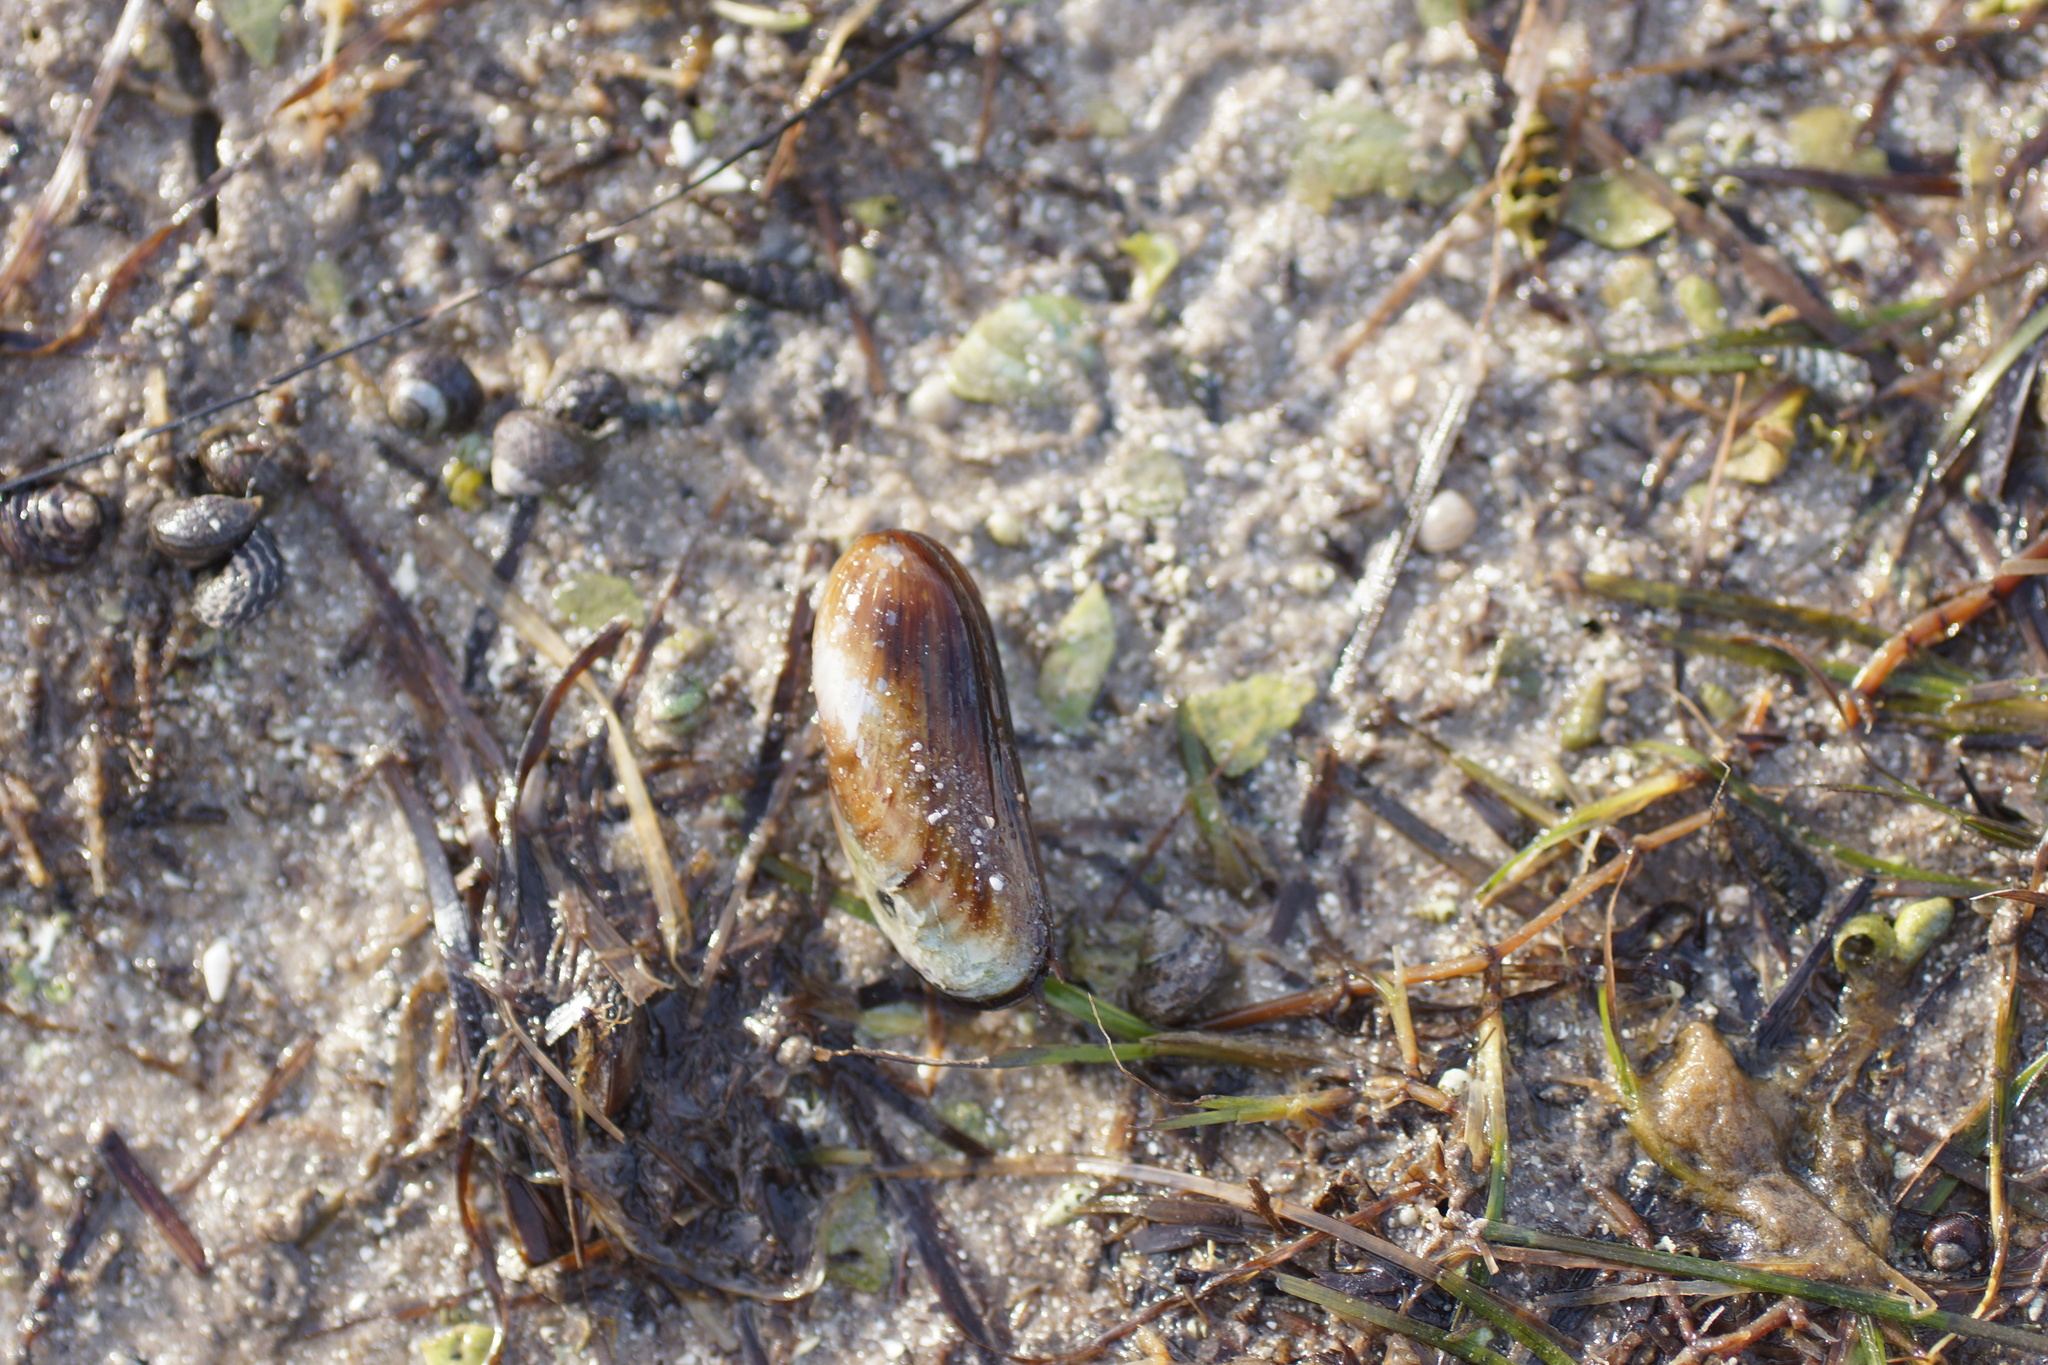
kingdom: Animalia
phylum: Mollusca
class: Bivalvia
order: Mytilida
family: Mytilidae
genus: Xenostrobus
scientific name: Xenostrobus inconstans
